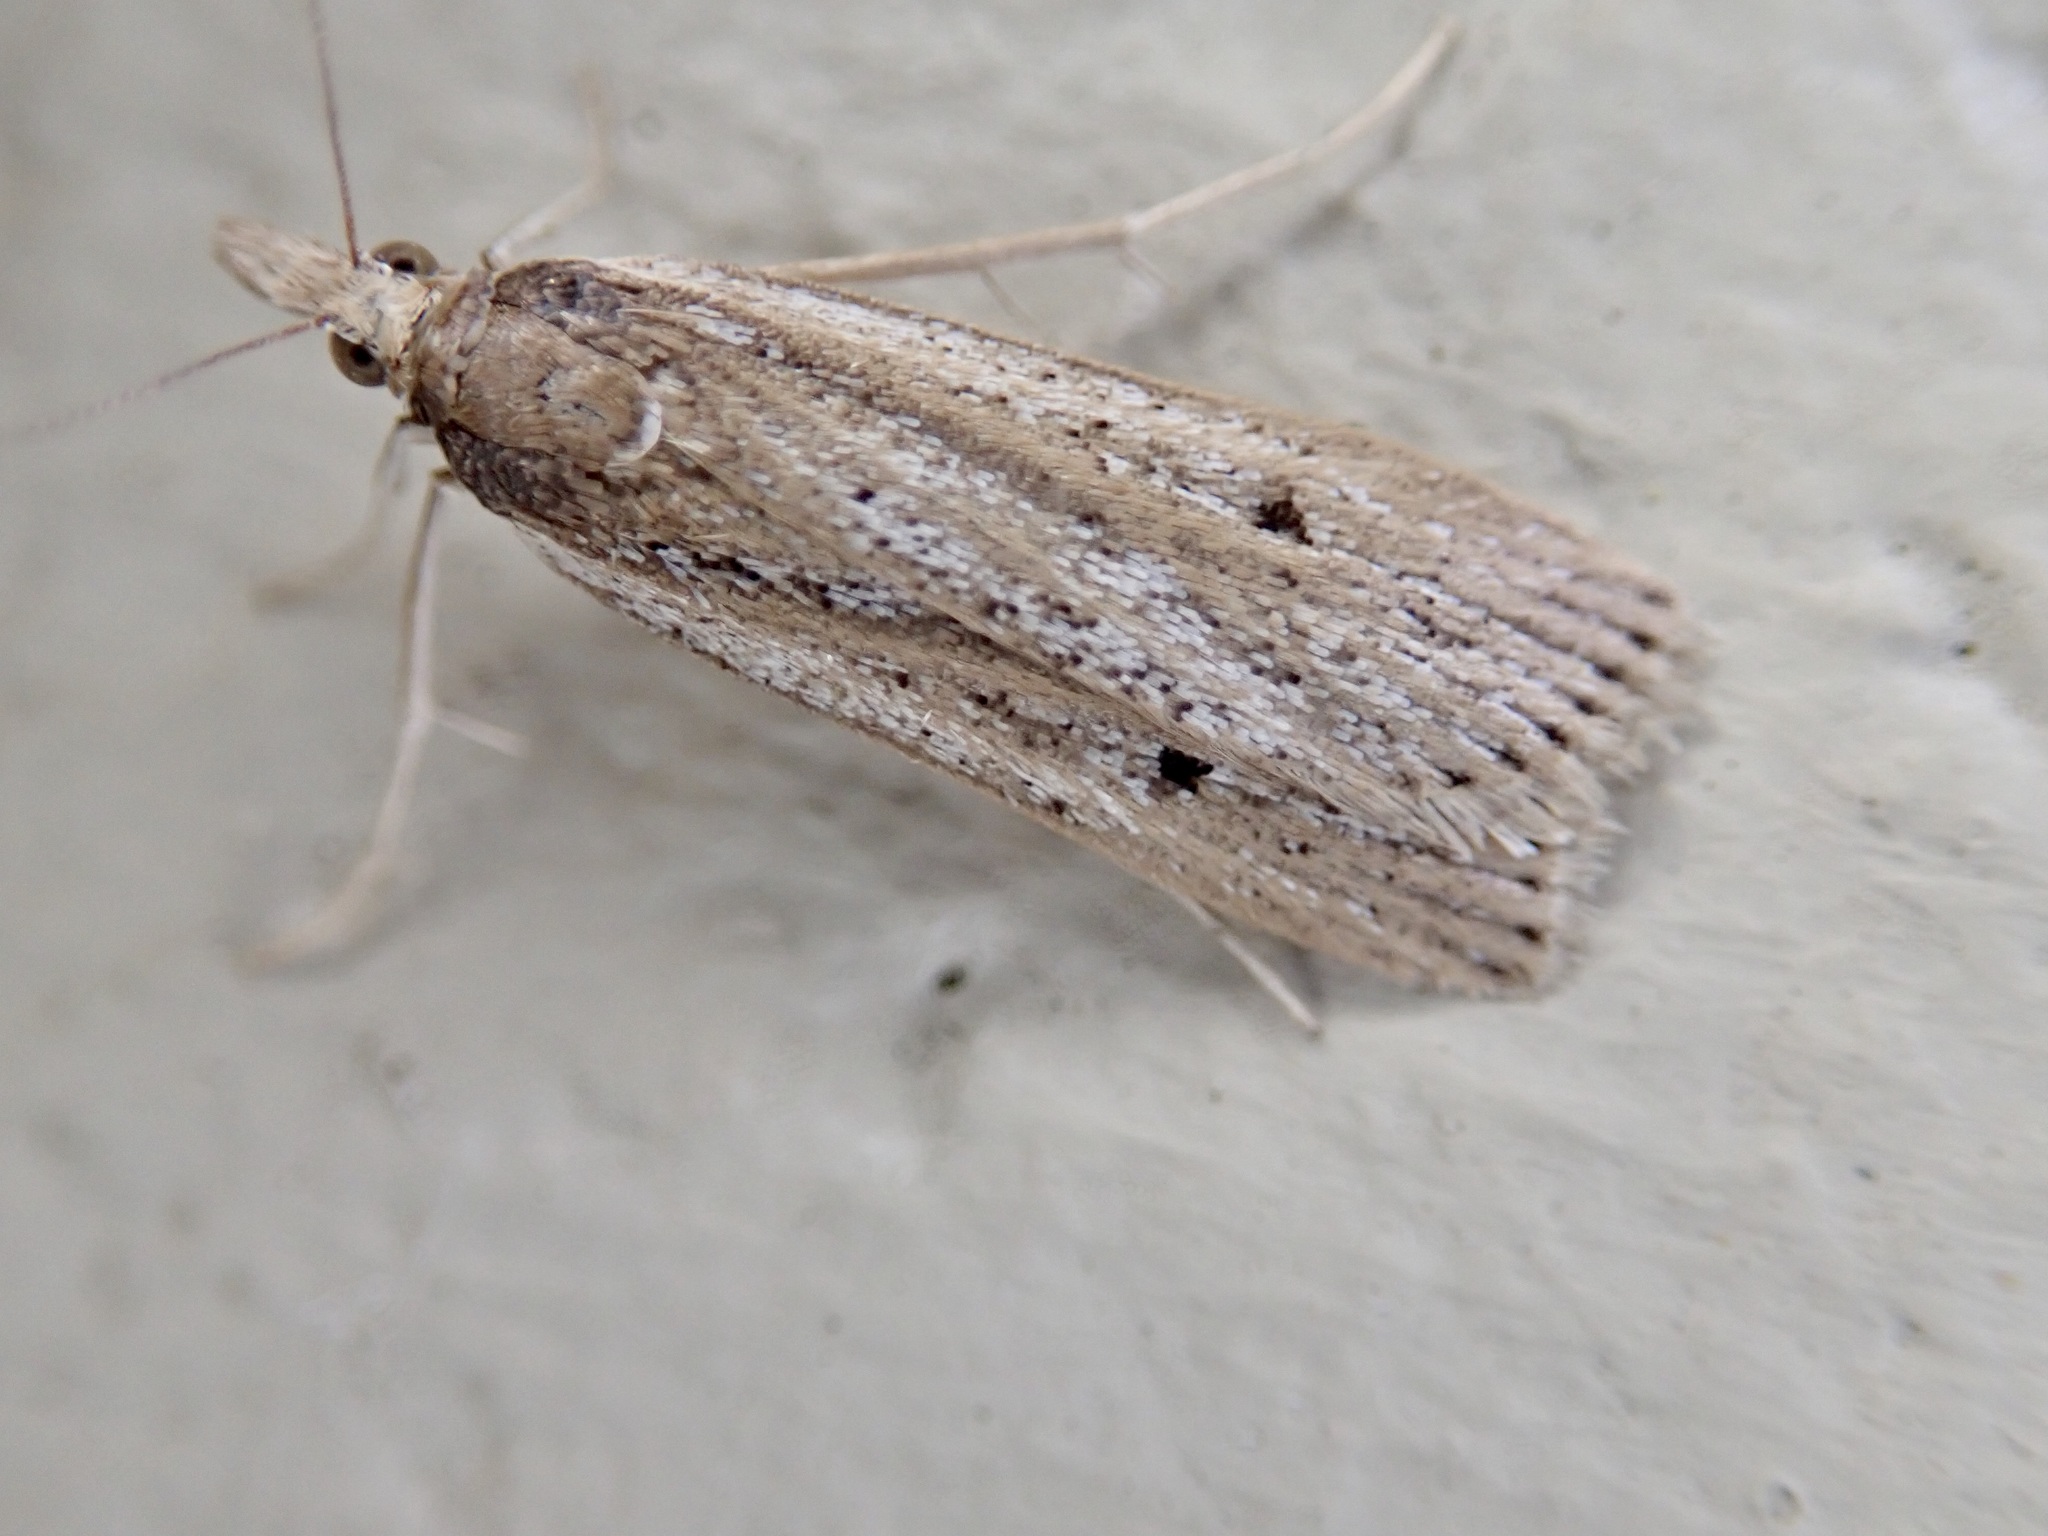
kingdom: Animalia
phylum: Arthropoda
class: Insecta
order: Lepidoptera
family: Crambidae
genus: Eudonia
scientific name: Eudonia sabulosella
